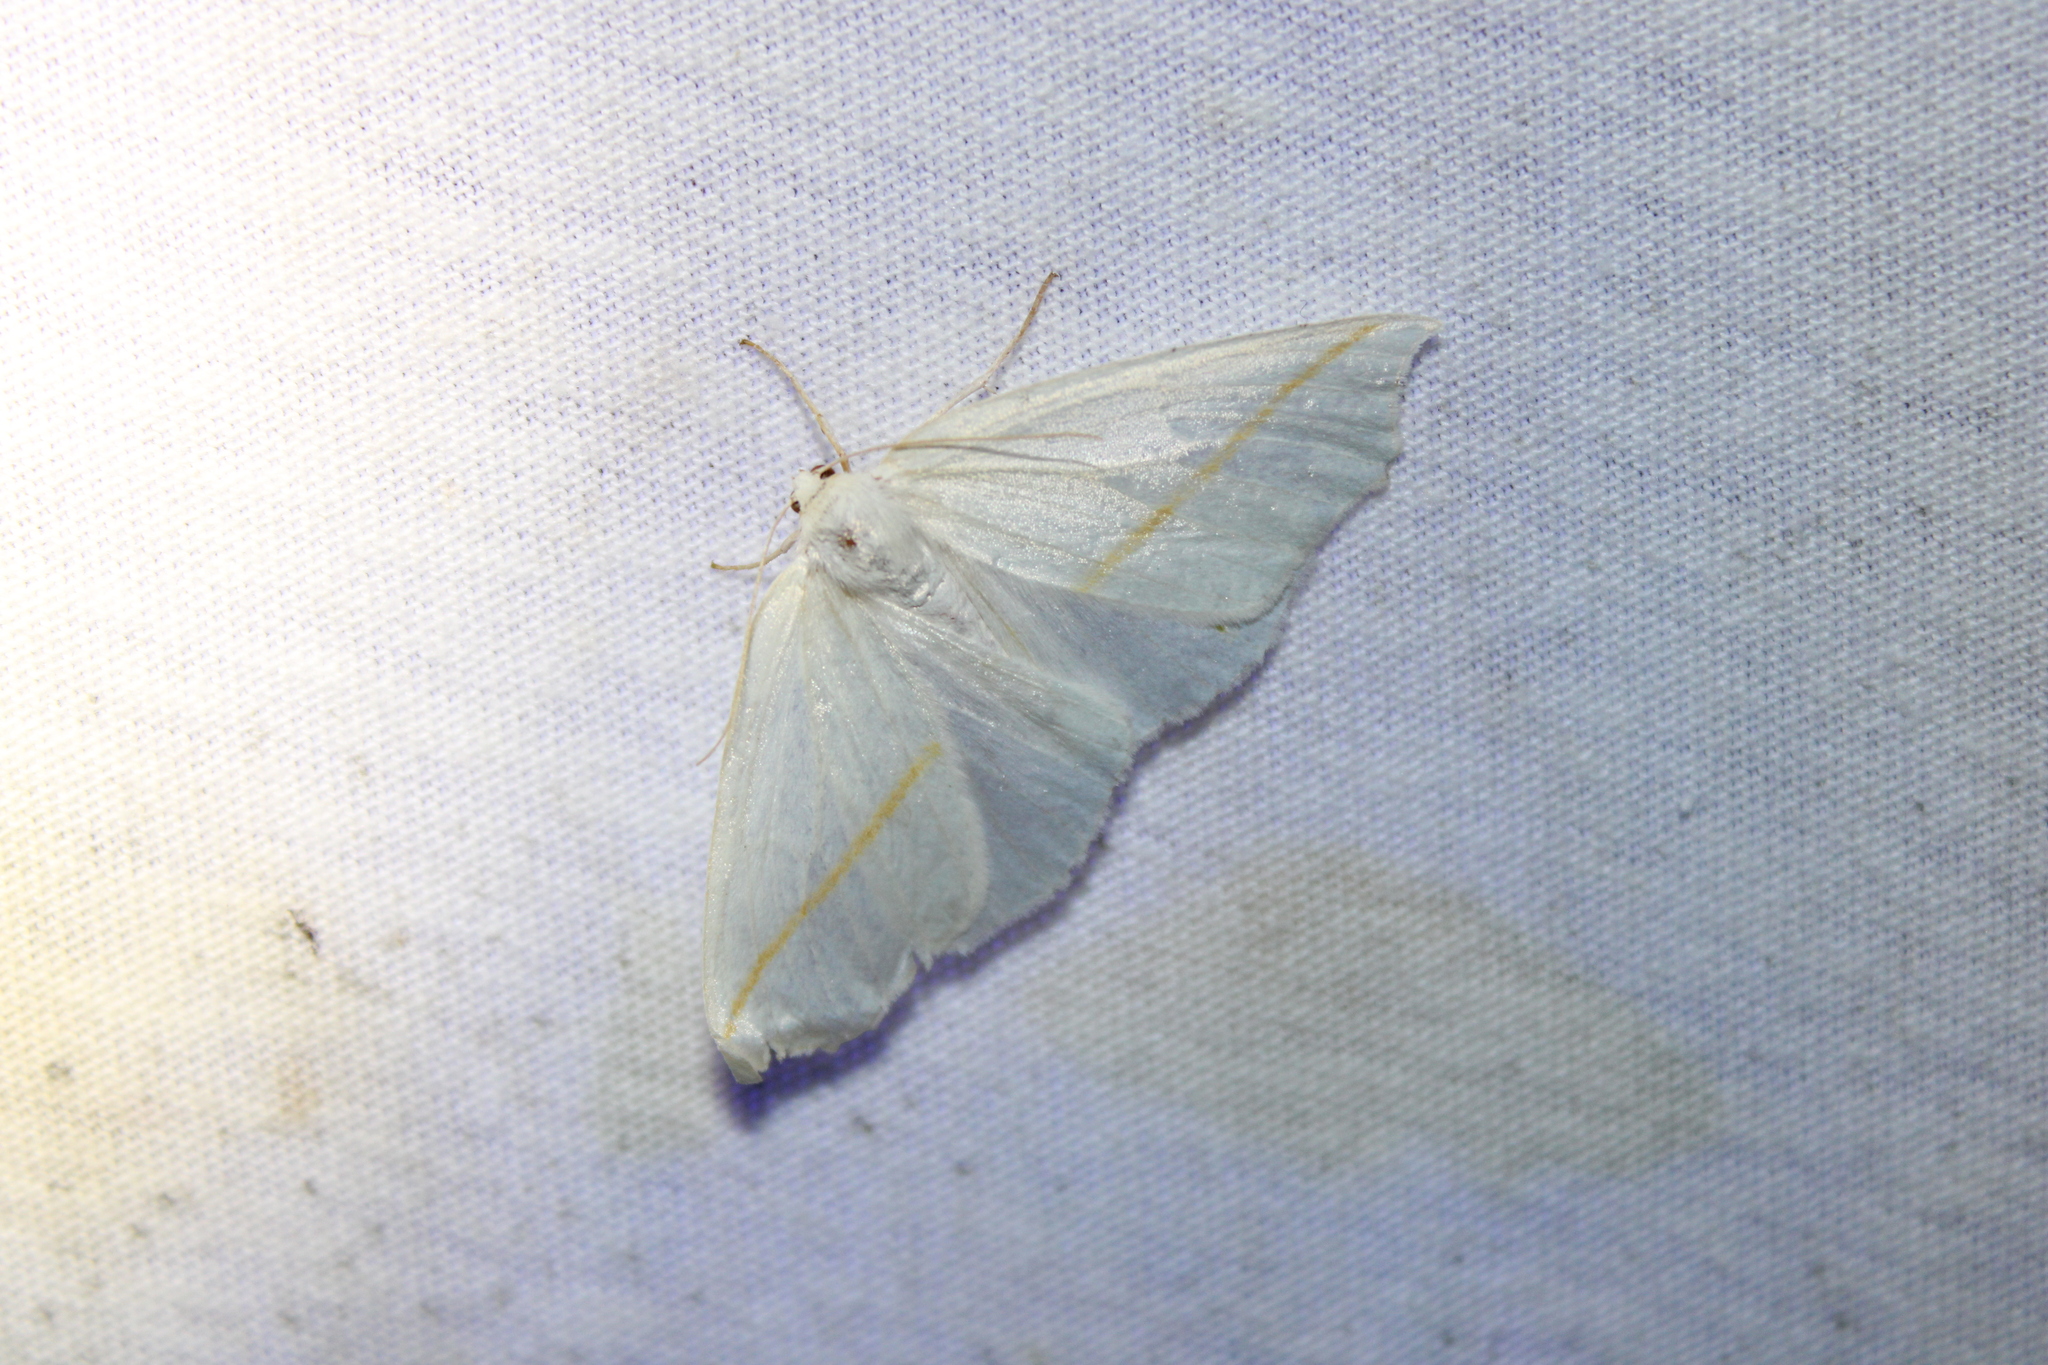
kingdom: Animalia
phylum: Arthropoda
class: Insecta
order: Lepidoptera
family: Geometridae
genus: Tetracis
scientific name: Tetracis cachexiata
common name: White slant-line
